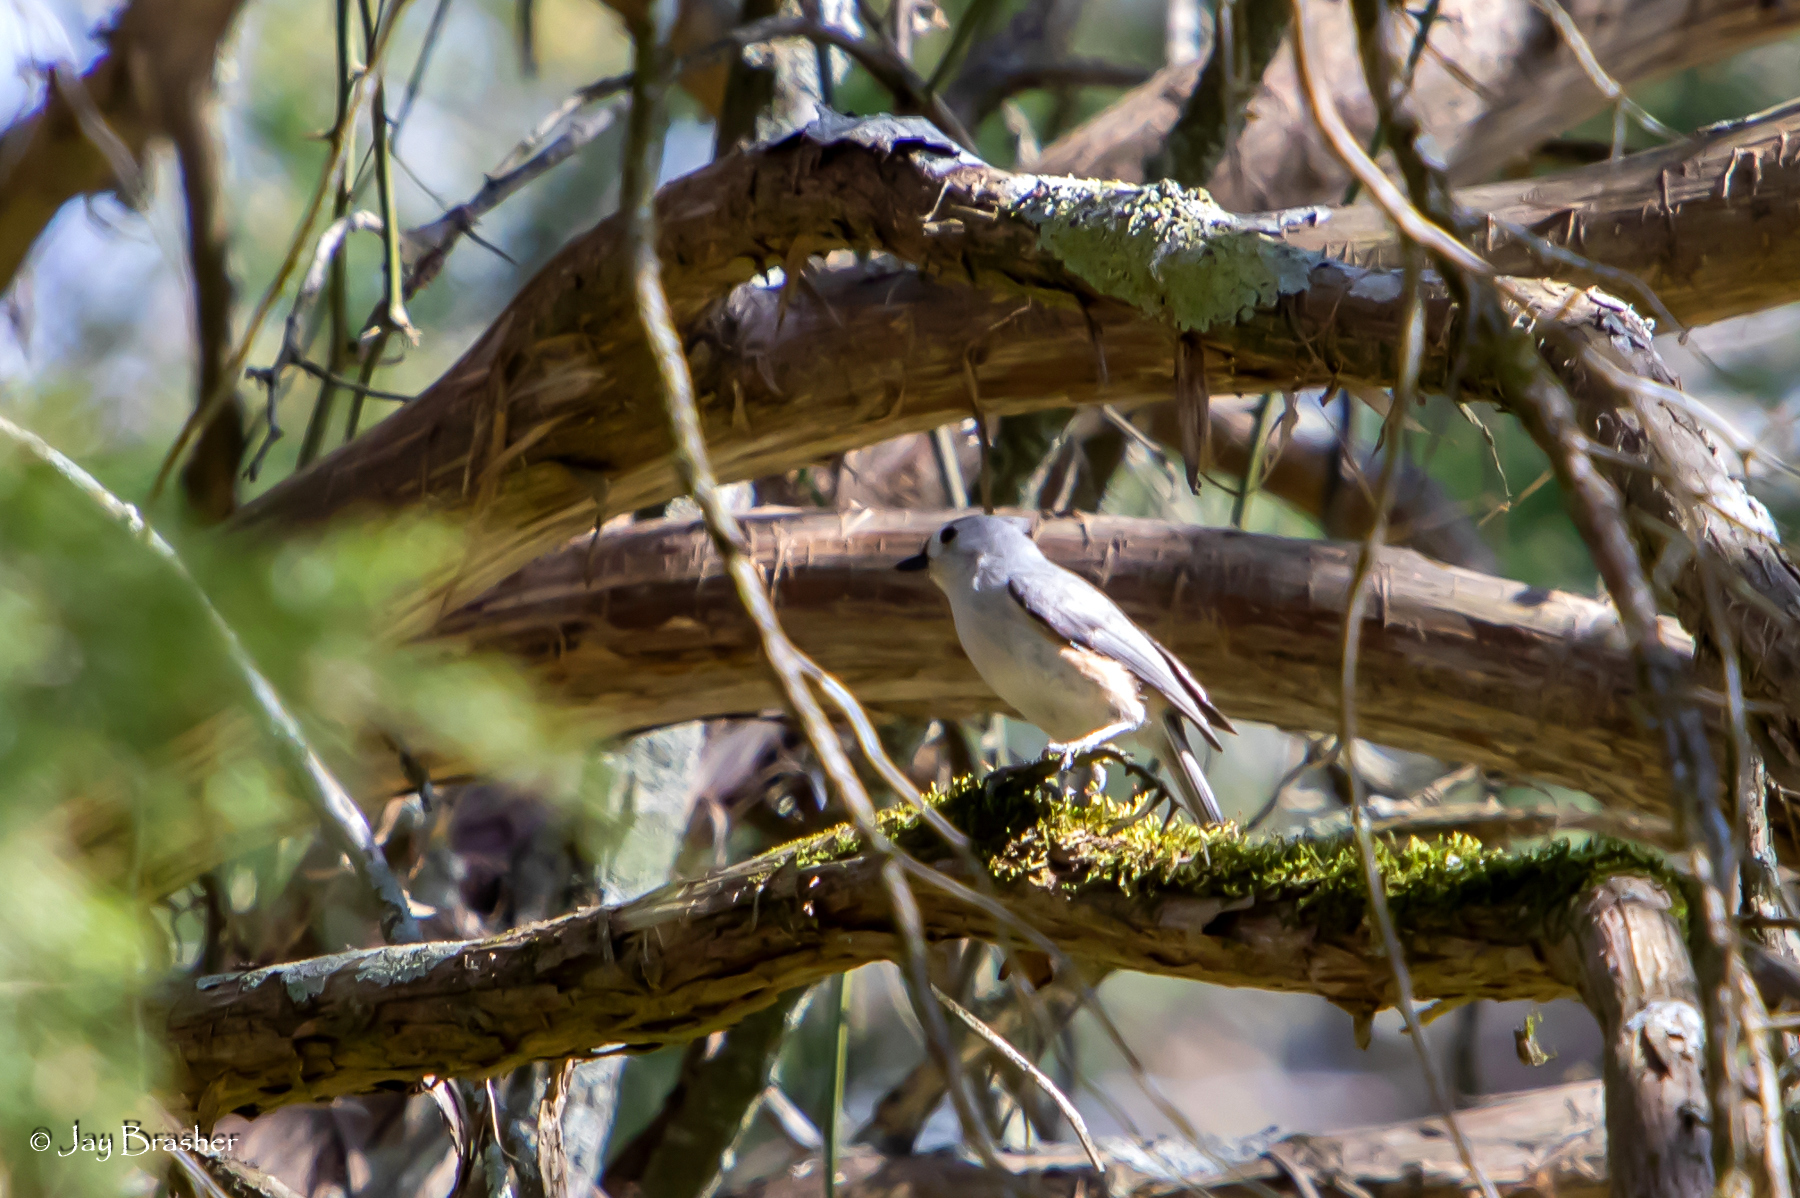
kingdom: Animalia
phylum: Chordata
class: Aves
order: Passeriformes
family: Paridae
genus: Baeolophus
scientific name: Baeolophus bicolor
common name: Tufted titmouse
